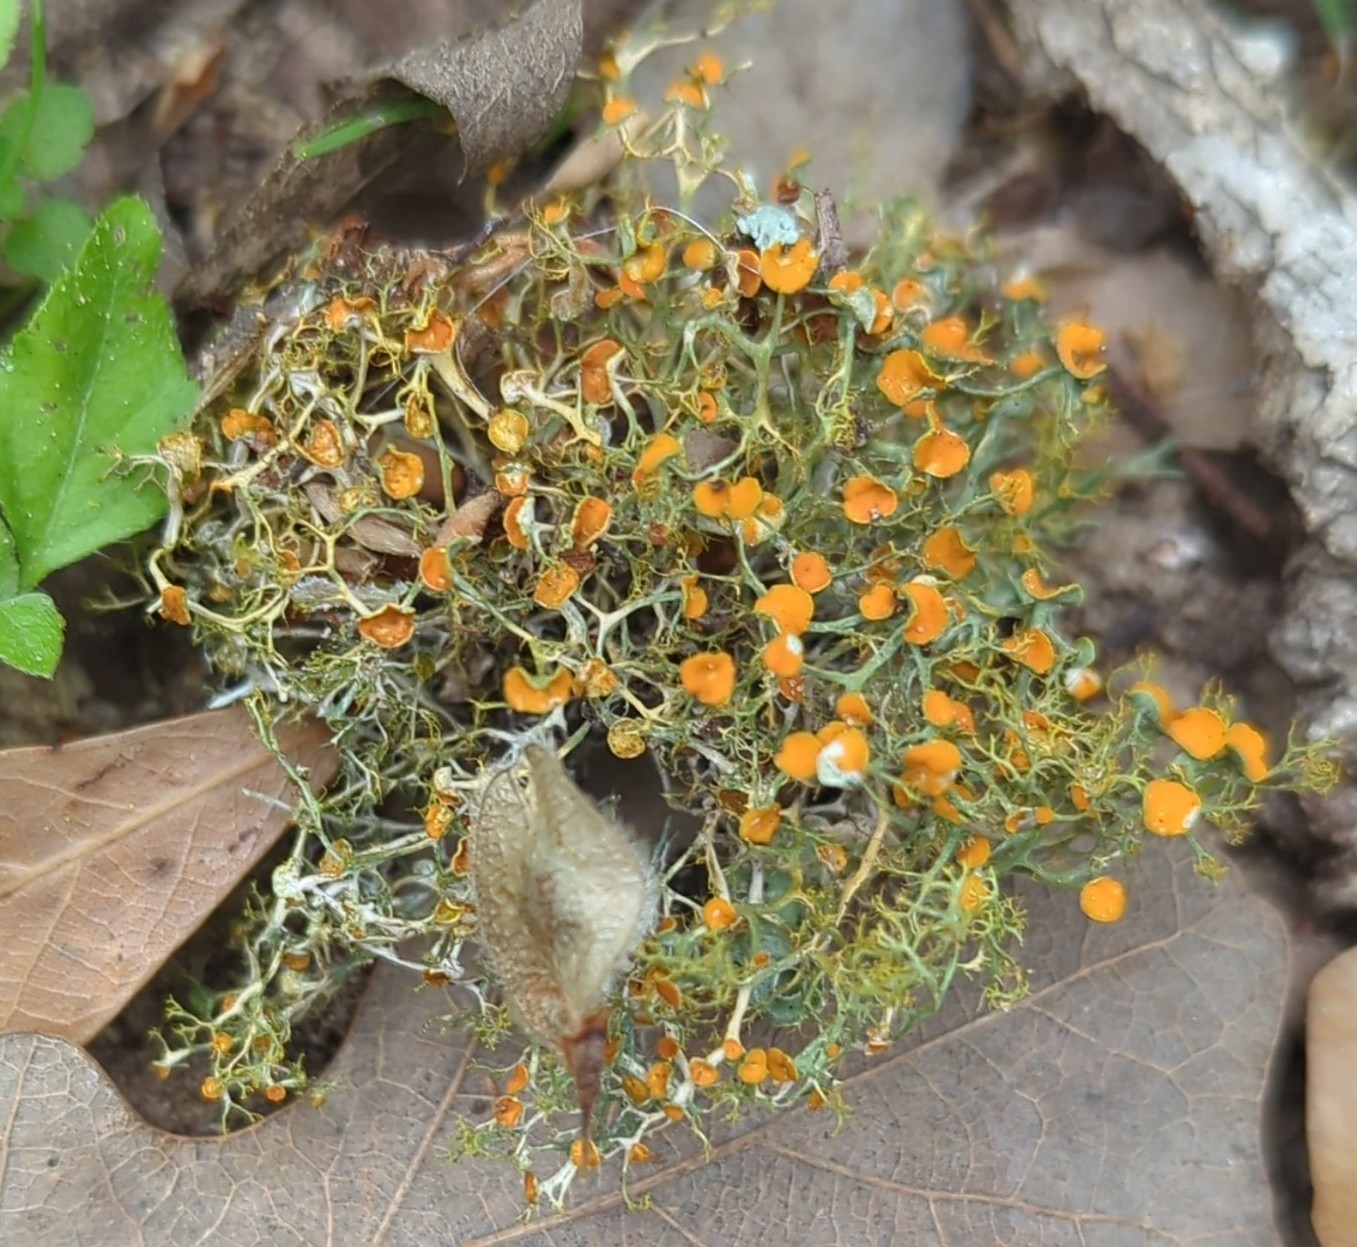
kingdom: Fungi
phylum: Ascomycota
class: Lecanoromycetes
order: Teloschistales
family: Teloschistaceae
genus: Teloschistes
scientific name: Teloschistes exilis
